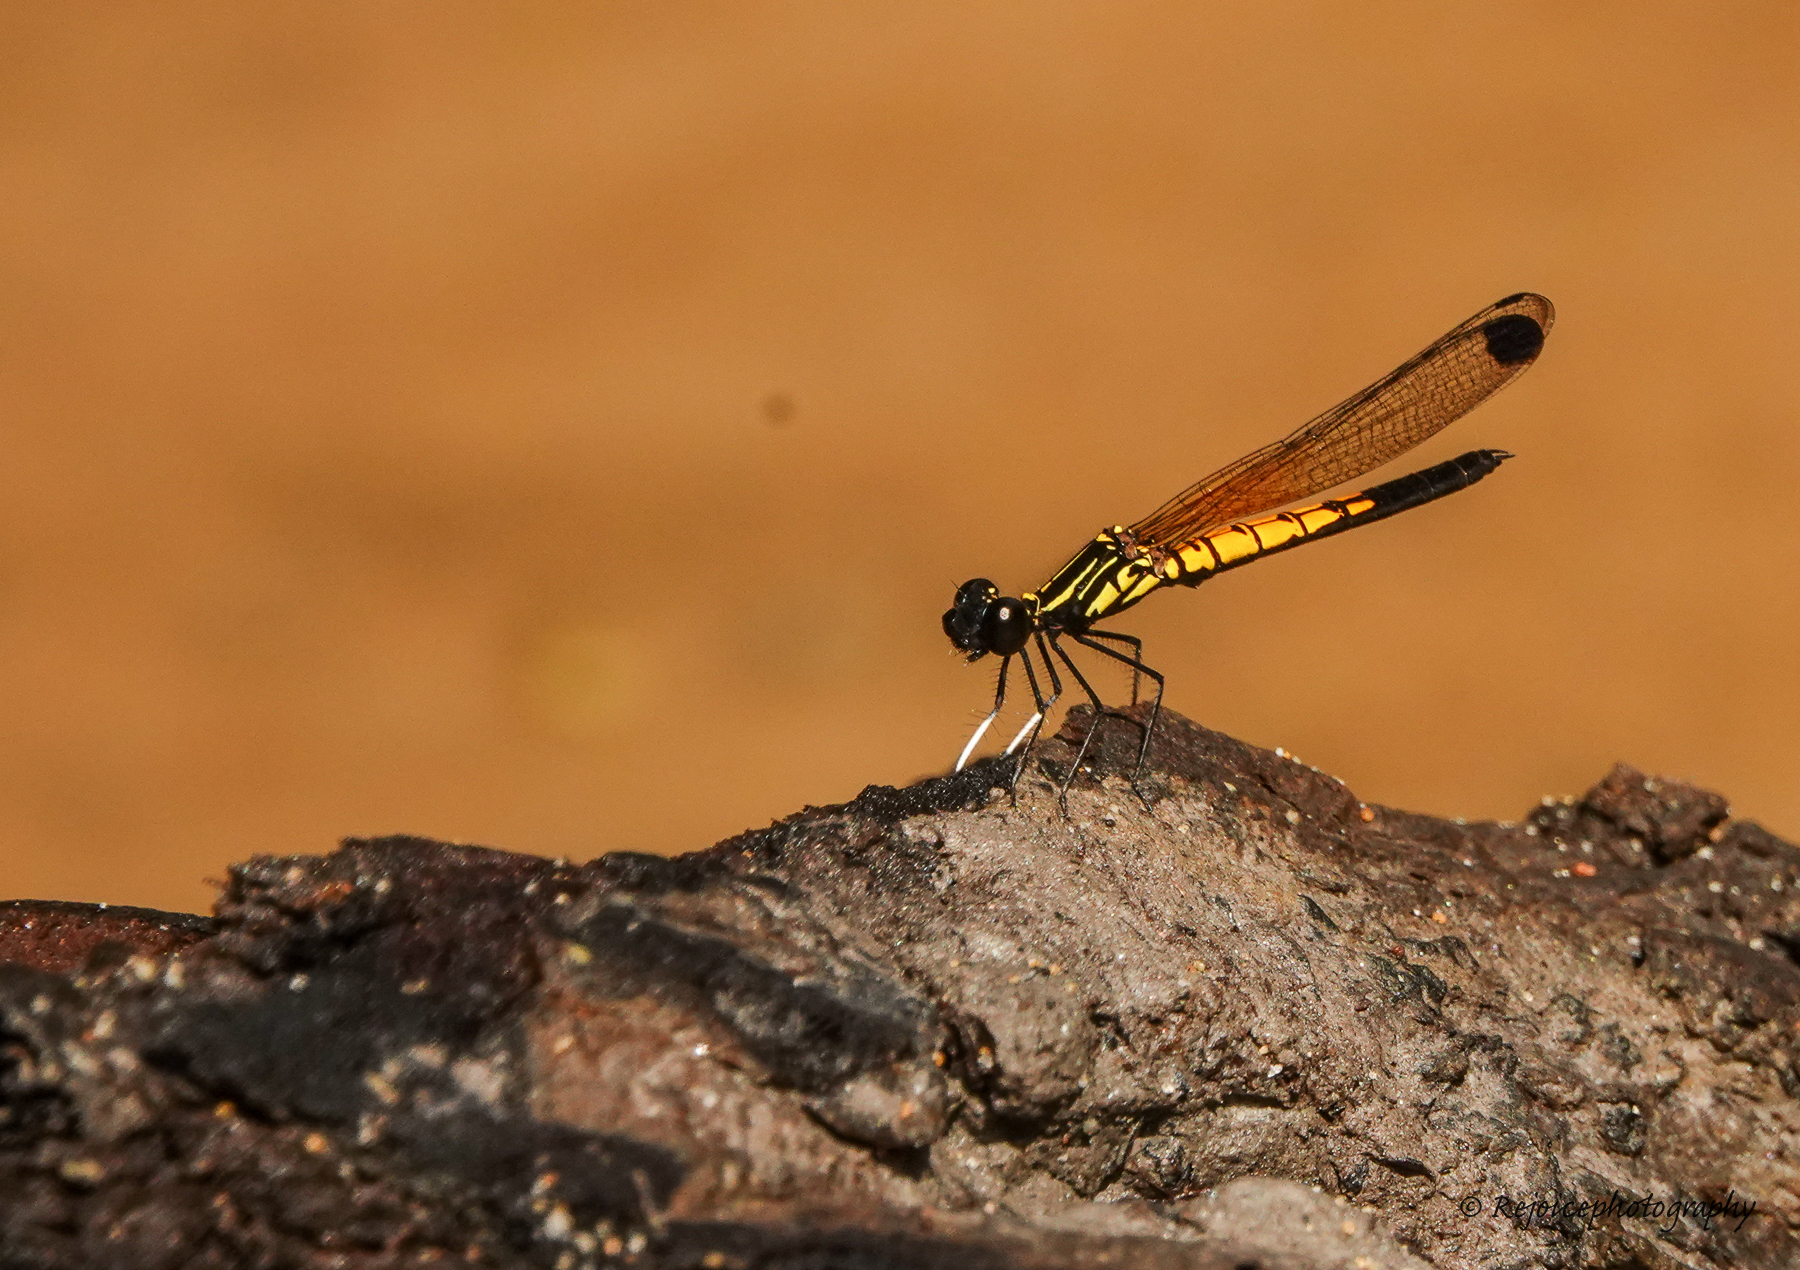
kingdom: Animalia
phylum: Arthropoda
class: Insecta
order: Odonata
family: Chlorocyphidae
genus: Libellago
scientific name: Libellago lineata
